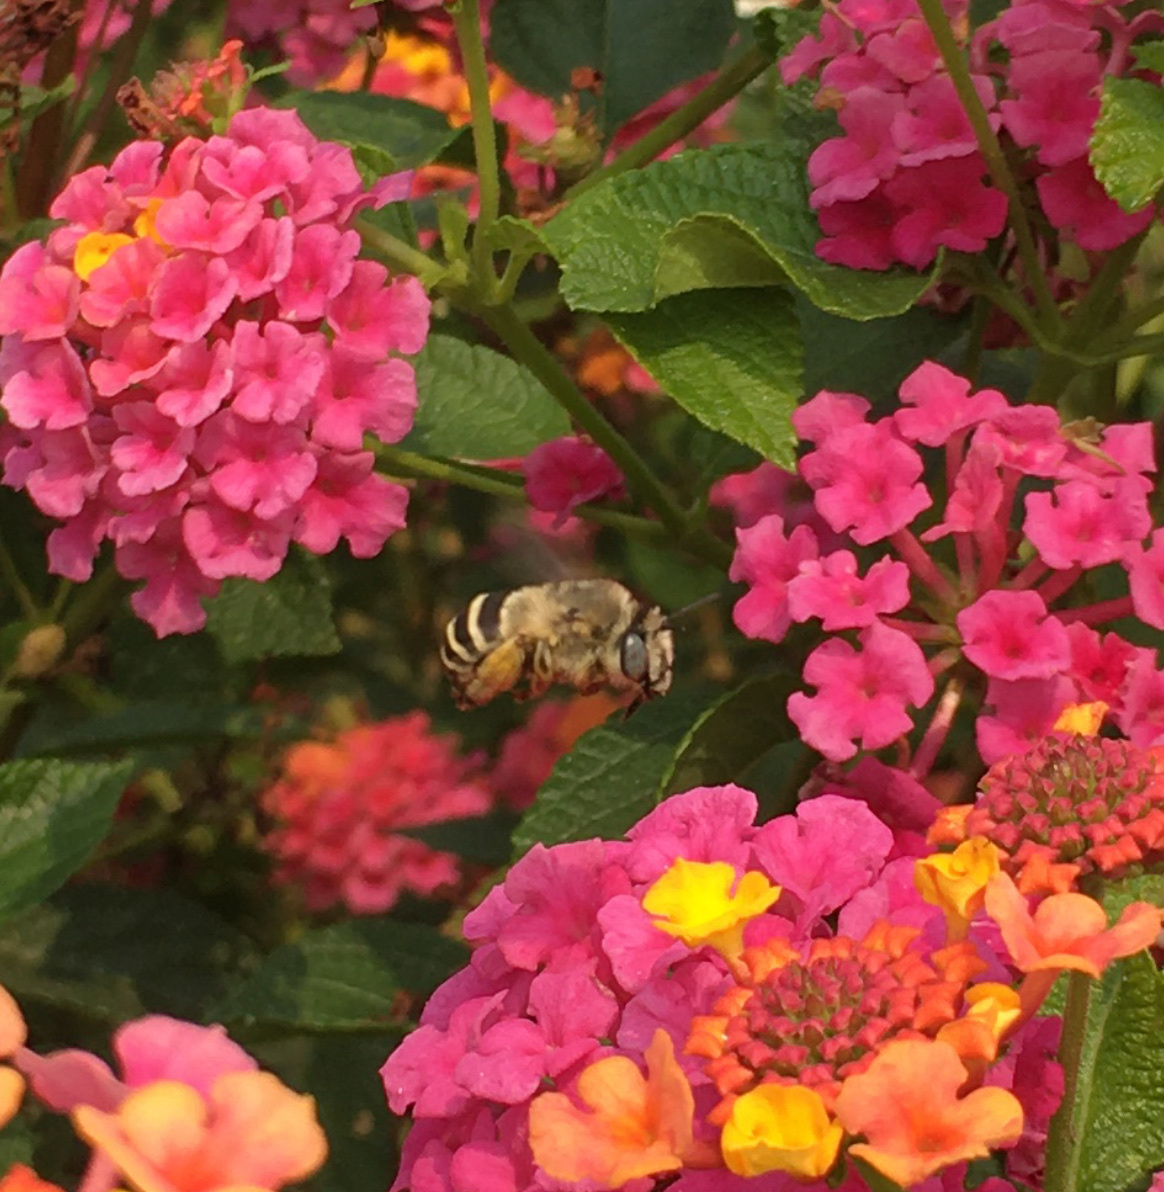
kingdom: Animalia
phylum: Arthropoda
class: Insecta
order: Hymenoptera
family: Apidae
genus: Anthophora
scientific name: Anthophora urbana
